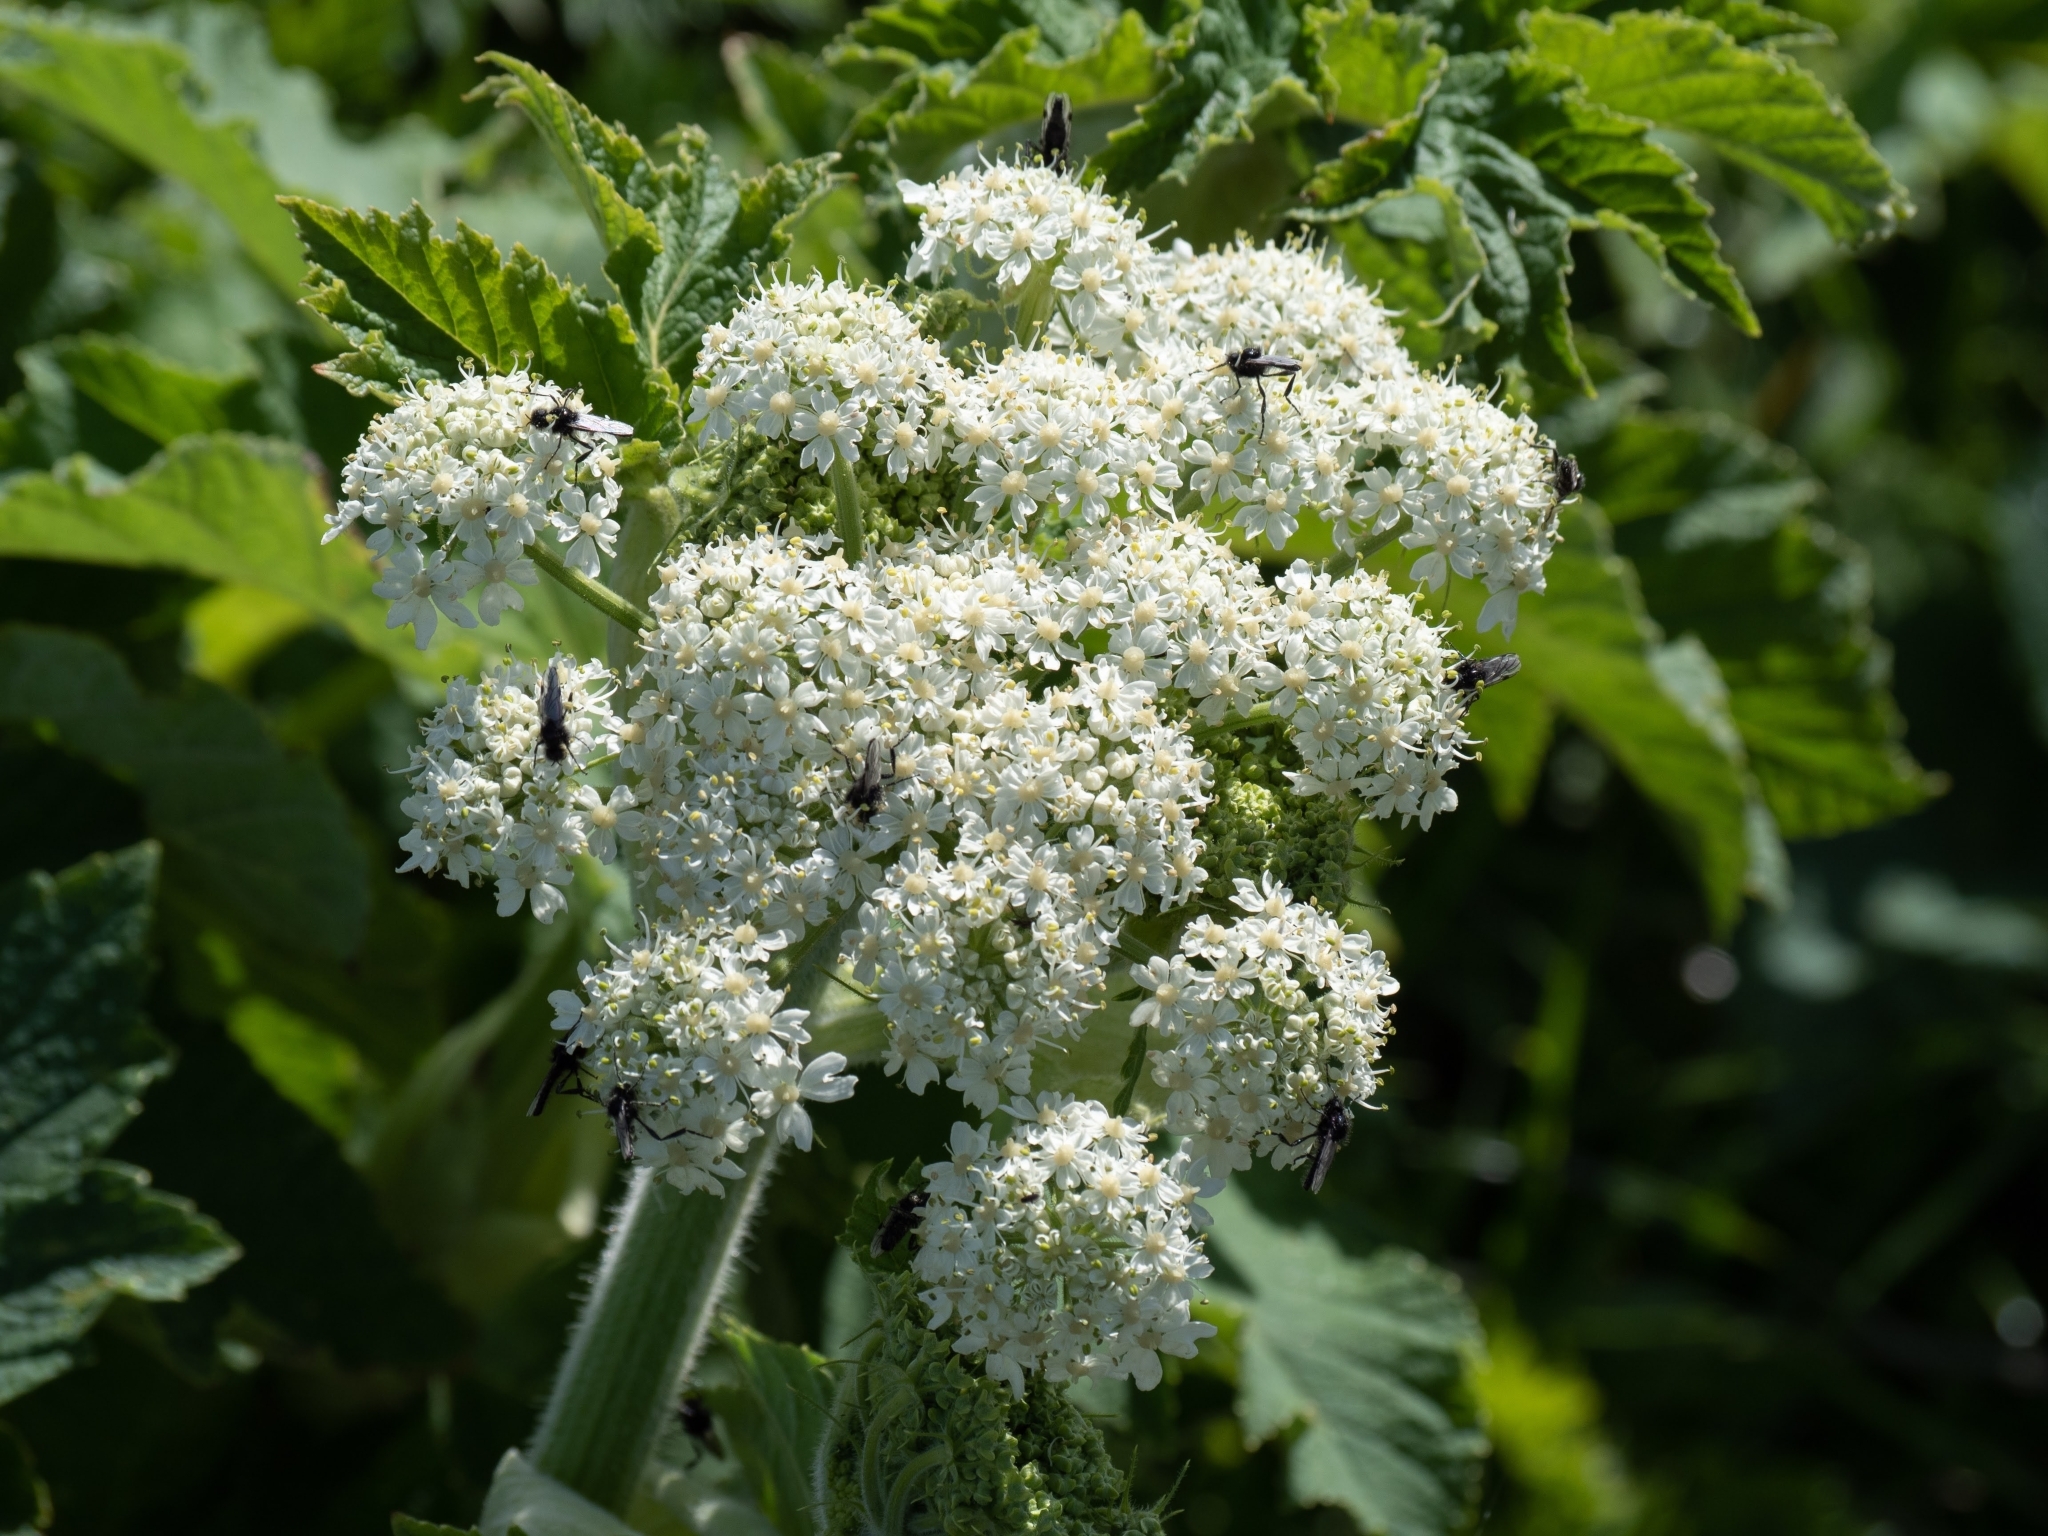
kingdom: Plantae
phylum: Tracheophyta
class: Magnoliopsida
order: Apiales
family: Apiaceae
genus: Heracleum
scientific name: Heracleum maximum
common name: American cow parsnip
